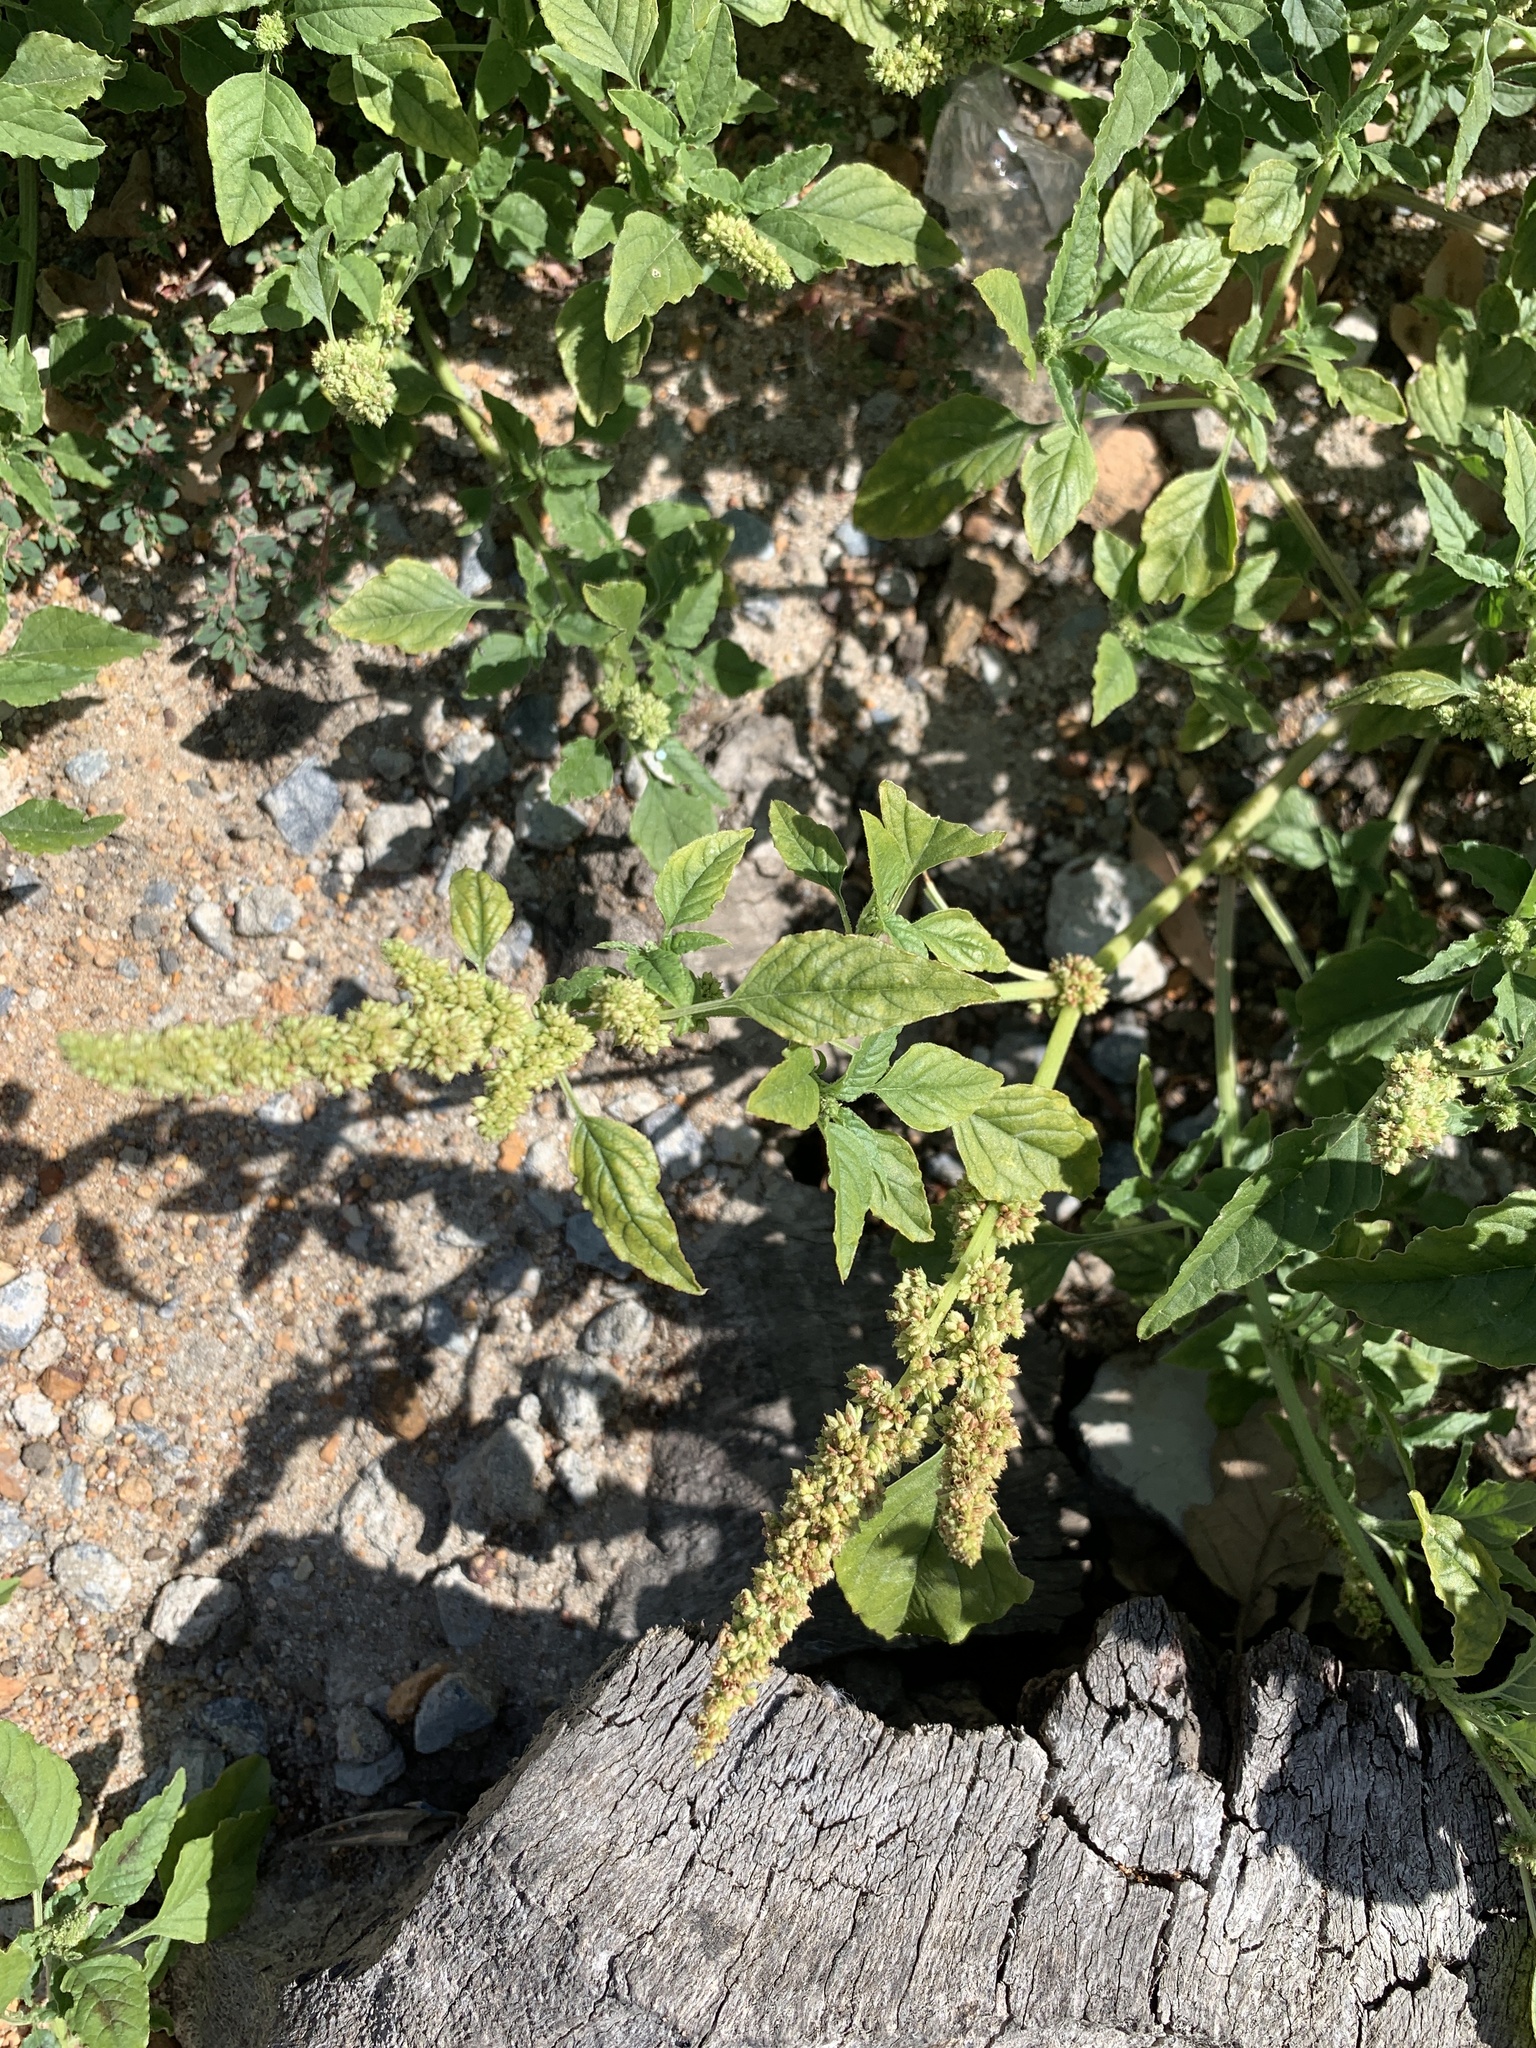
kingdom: Plantae
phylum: Tracheophyta
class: Magnoliopsida
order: Caryophyllales
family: Amaranthaceae
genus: Amaranthus
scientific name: Amaranthus deflexus
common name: Perennial pigweed
